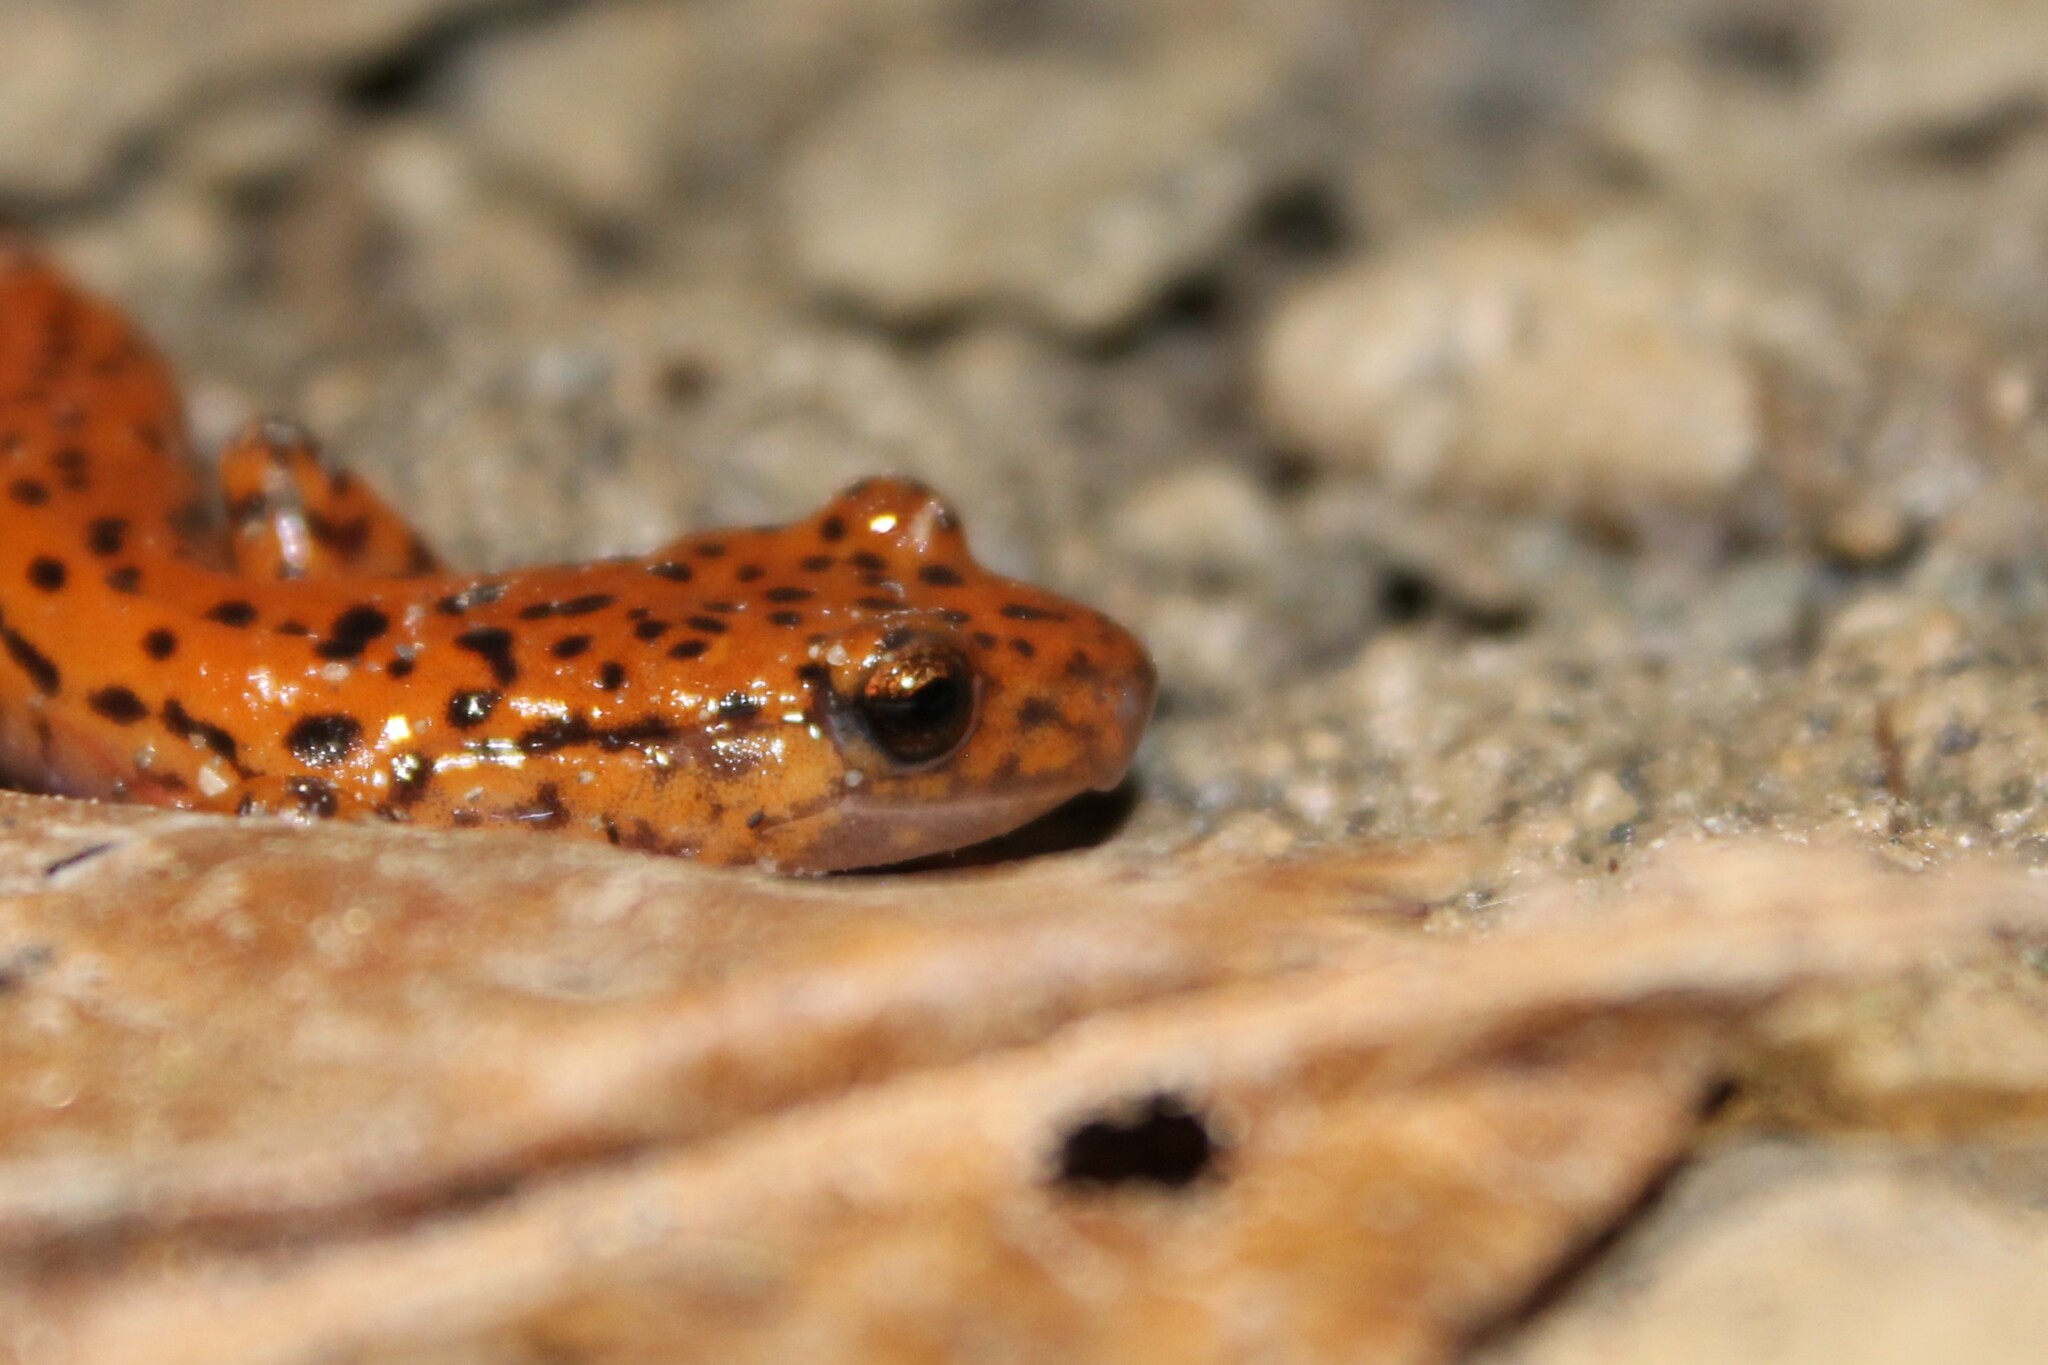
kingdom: Animalia
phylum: Chordata
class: Amphibia
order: Caudata
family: Plethodontidae
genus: Eurycea
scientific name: Eurycea lucifuga
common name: Cave salamander
